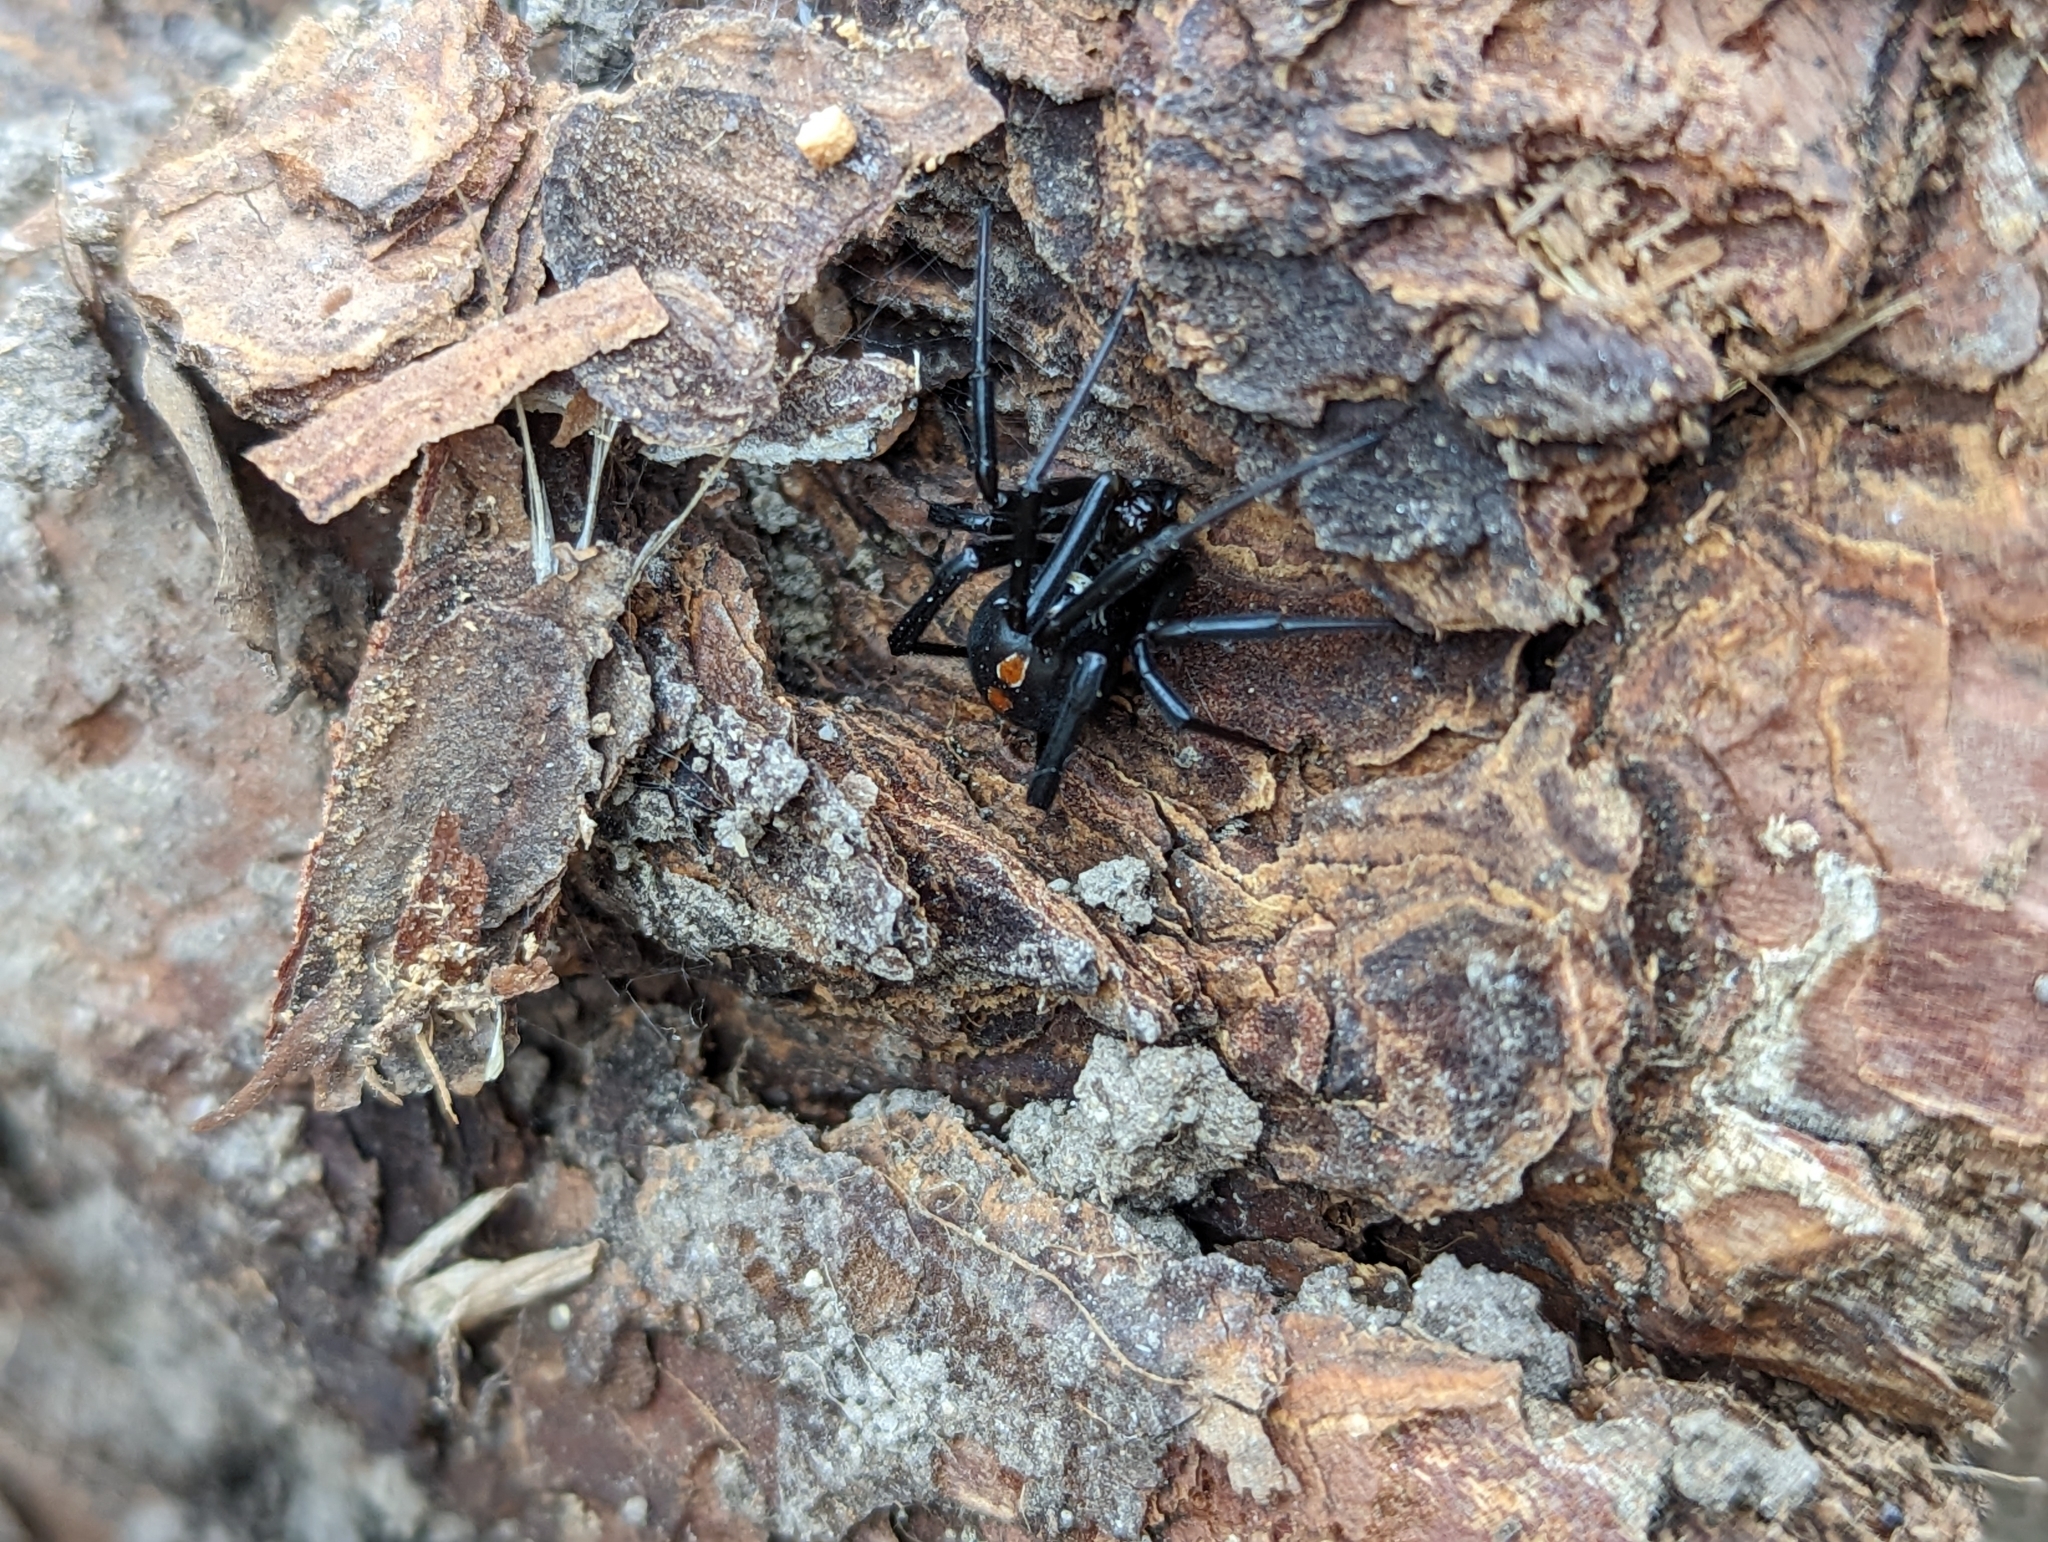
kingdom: Animalia
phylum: Arthropoda
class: Arachnida
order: Araneae
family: Theridiidae
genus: Latrodectus
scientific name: Latrodectus hesperus
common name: Western black widow
